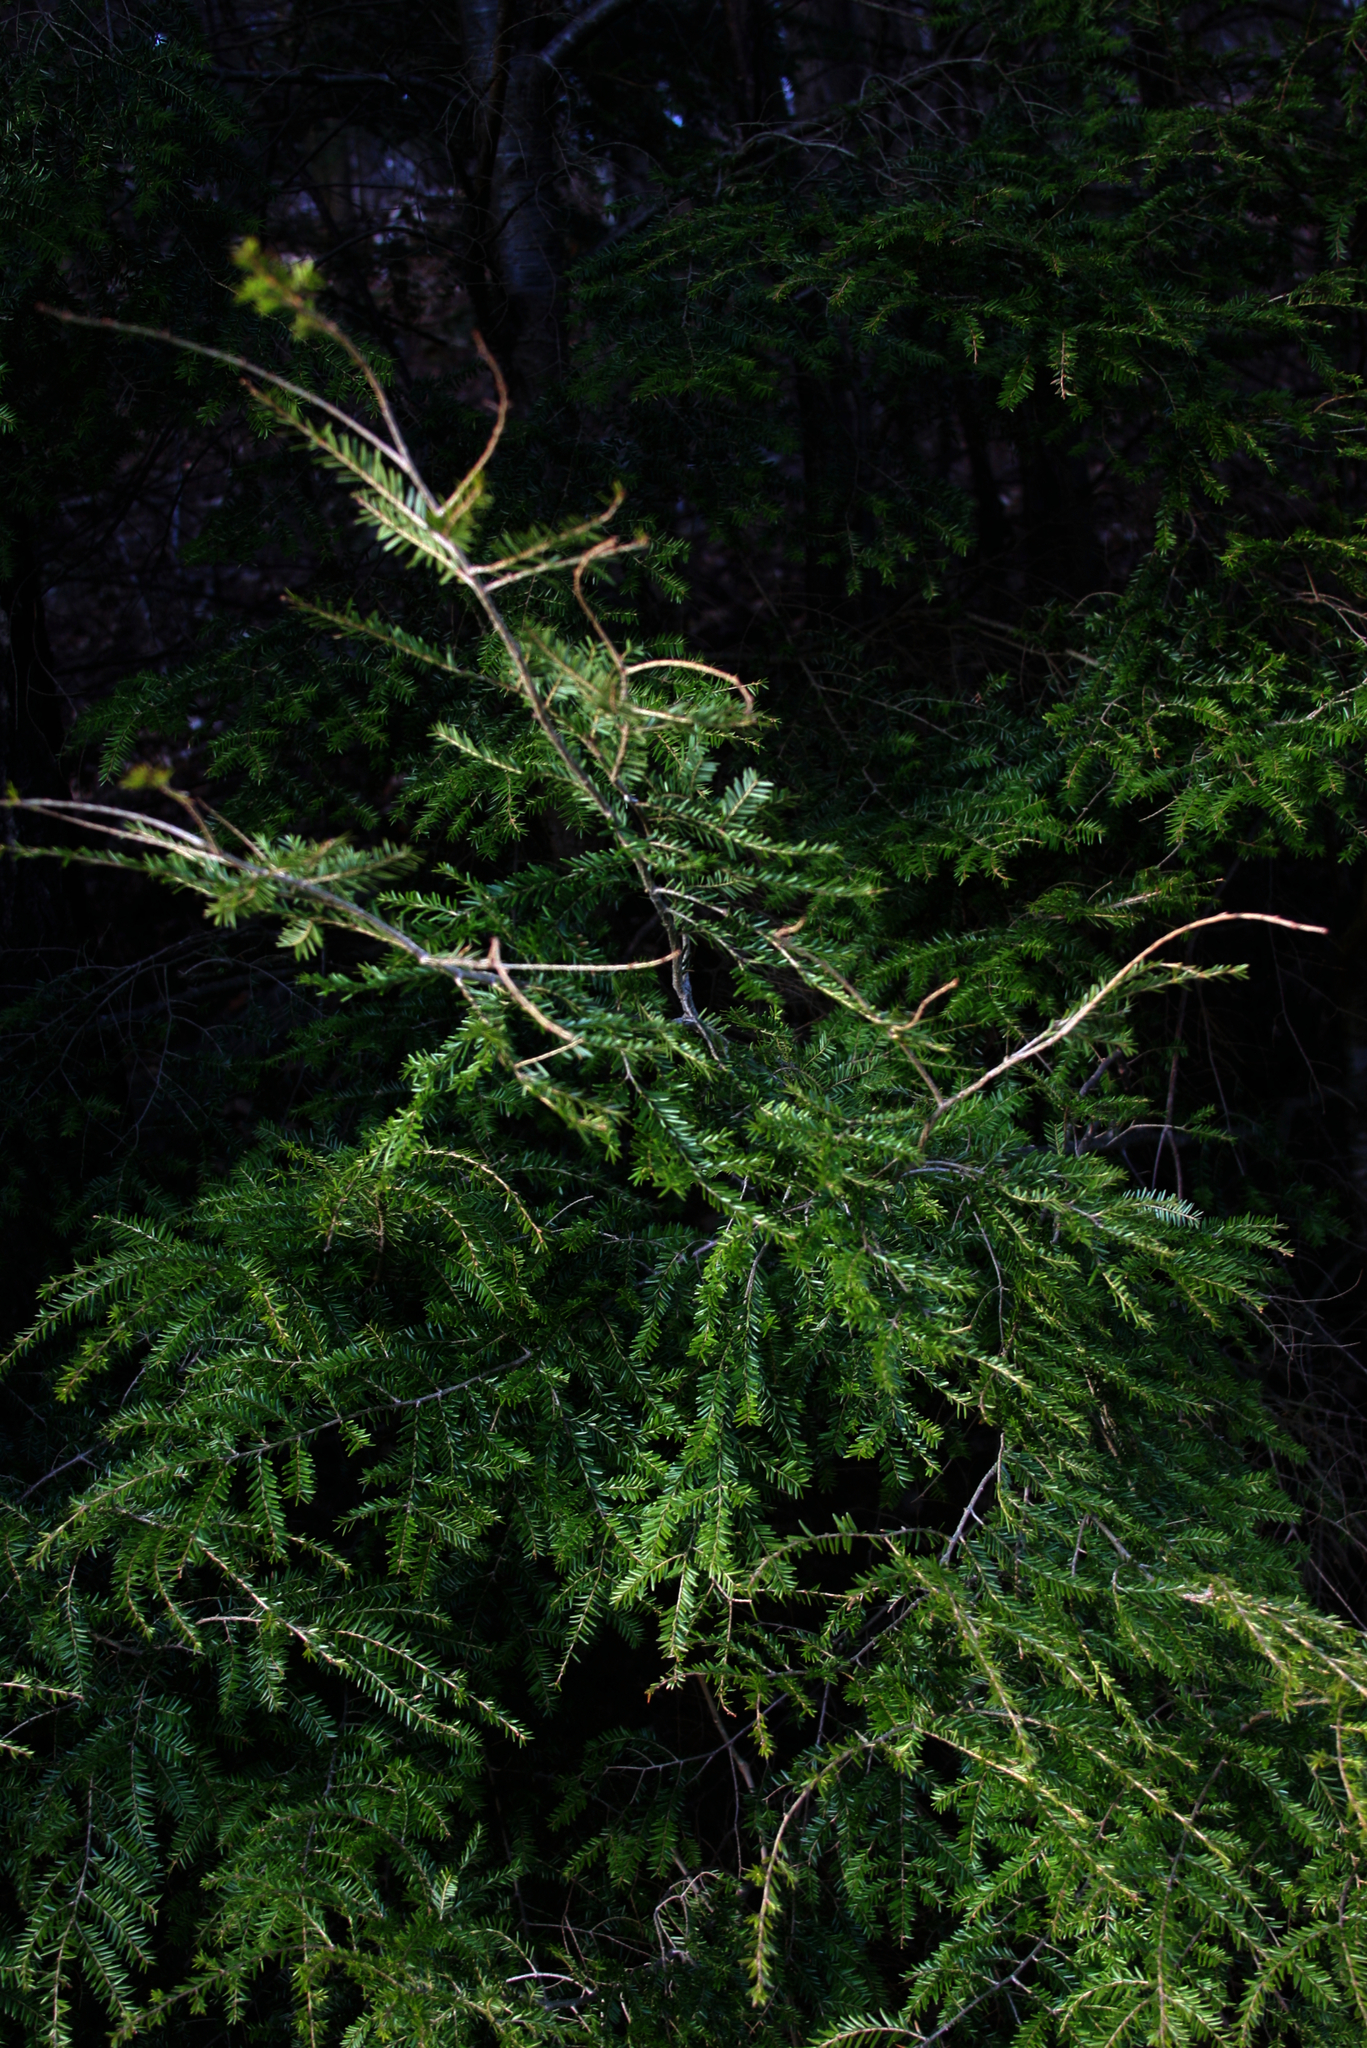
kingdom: Plantae
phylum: Tracheophyta
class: Pinopsida
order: Pinales
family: Pinaceae
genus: Tsuga
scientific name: Tsuga canadensis
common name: Eastern hemlock
